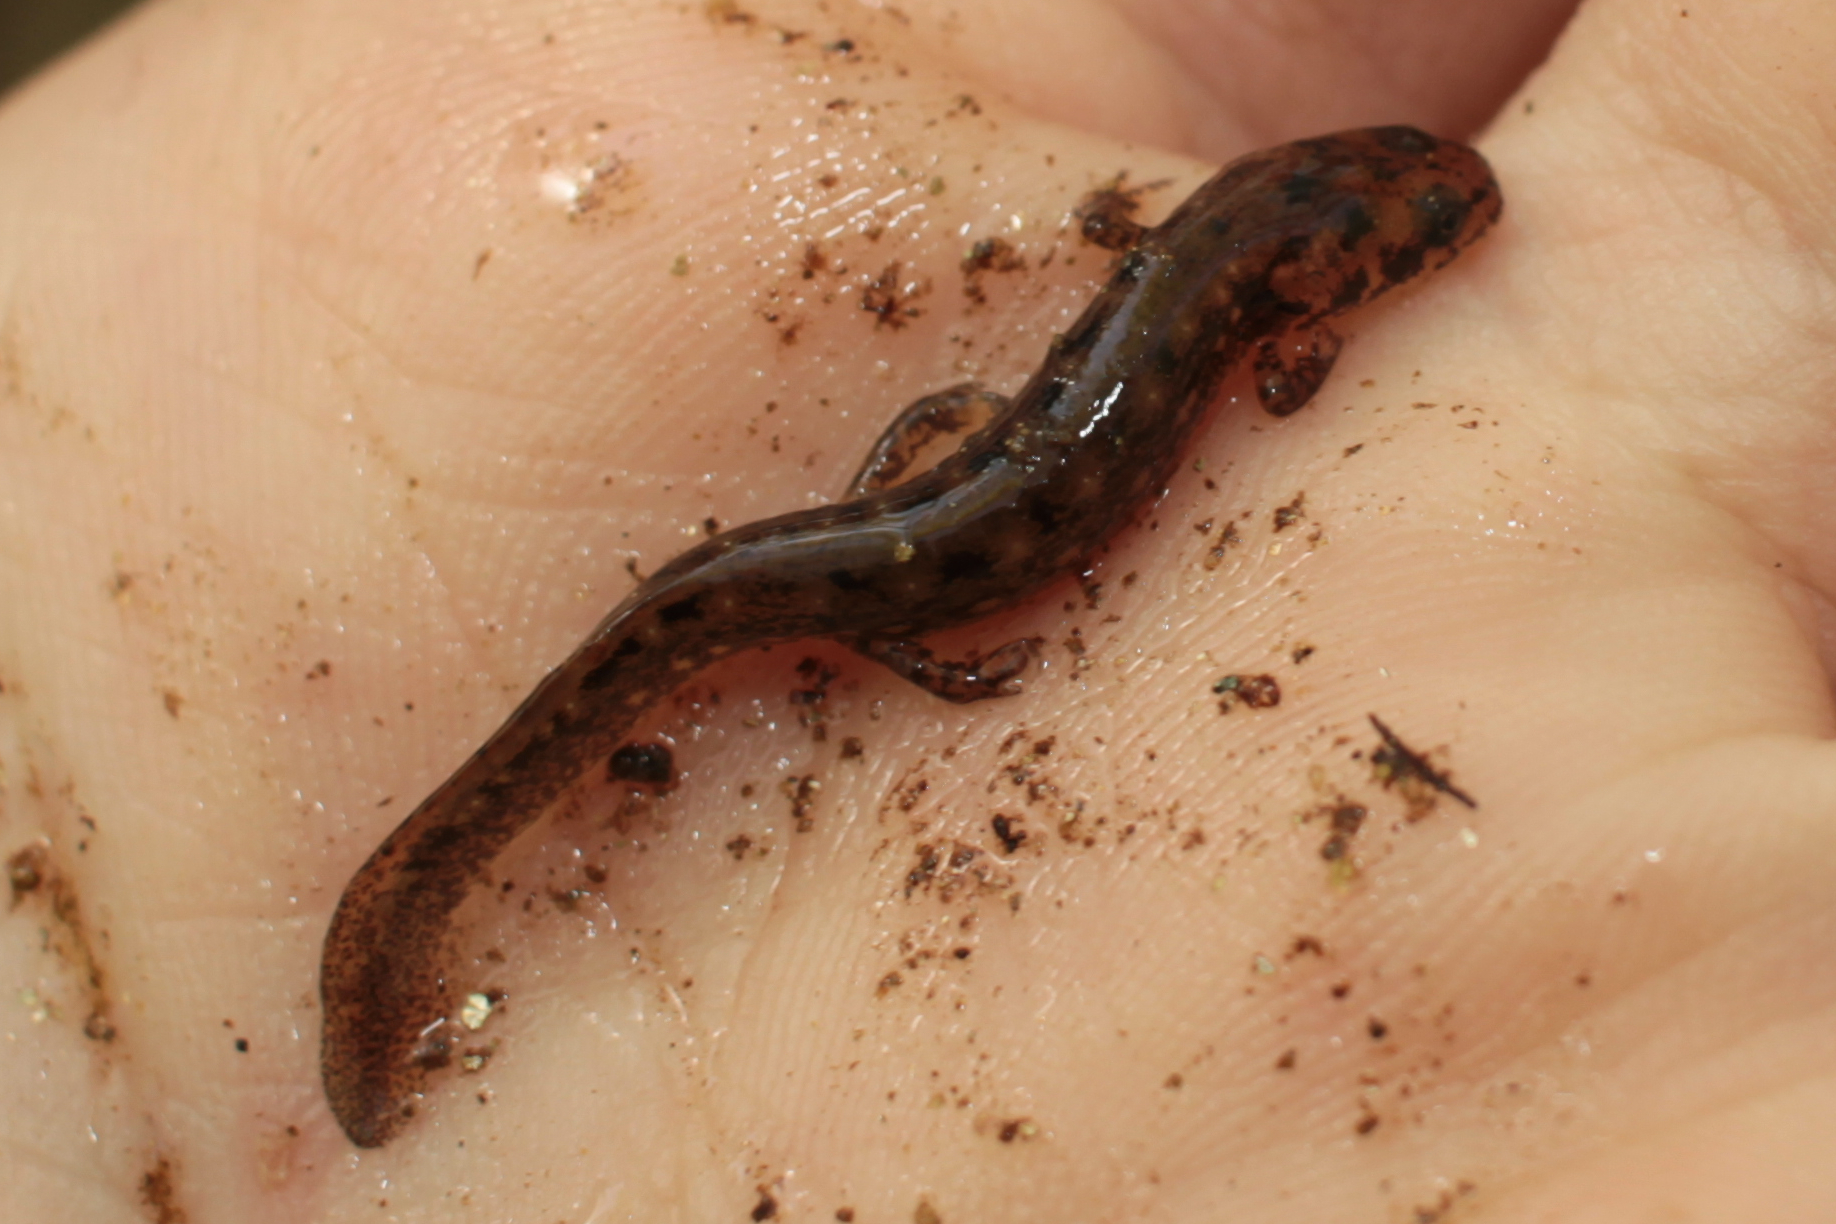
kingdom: Animalia
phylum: Chordata
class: Amphibia
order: Caudata
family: Plethodontidae
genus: Eurycea
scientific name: Eurycea wilderae
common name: Blue ridge two-lined salamander
